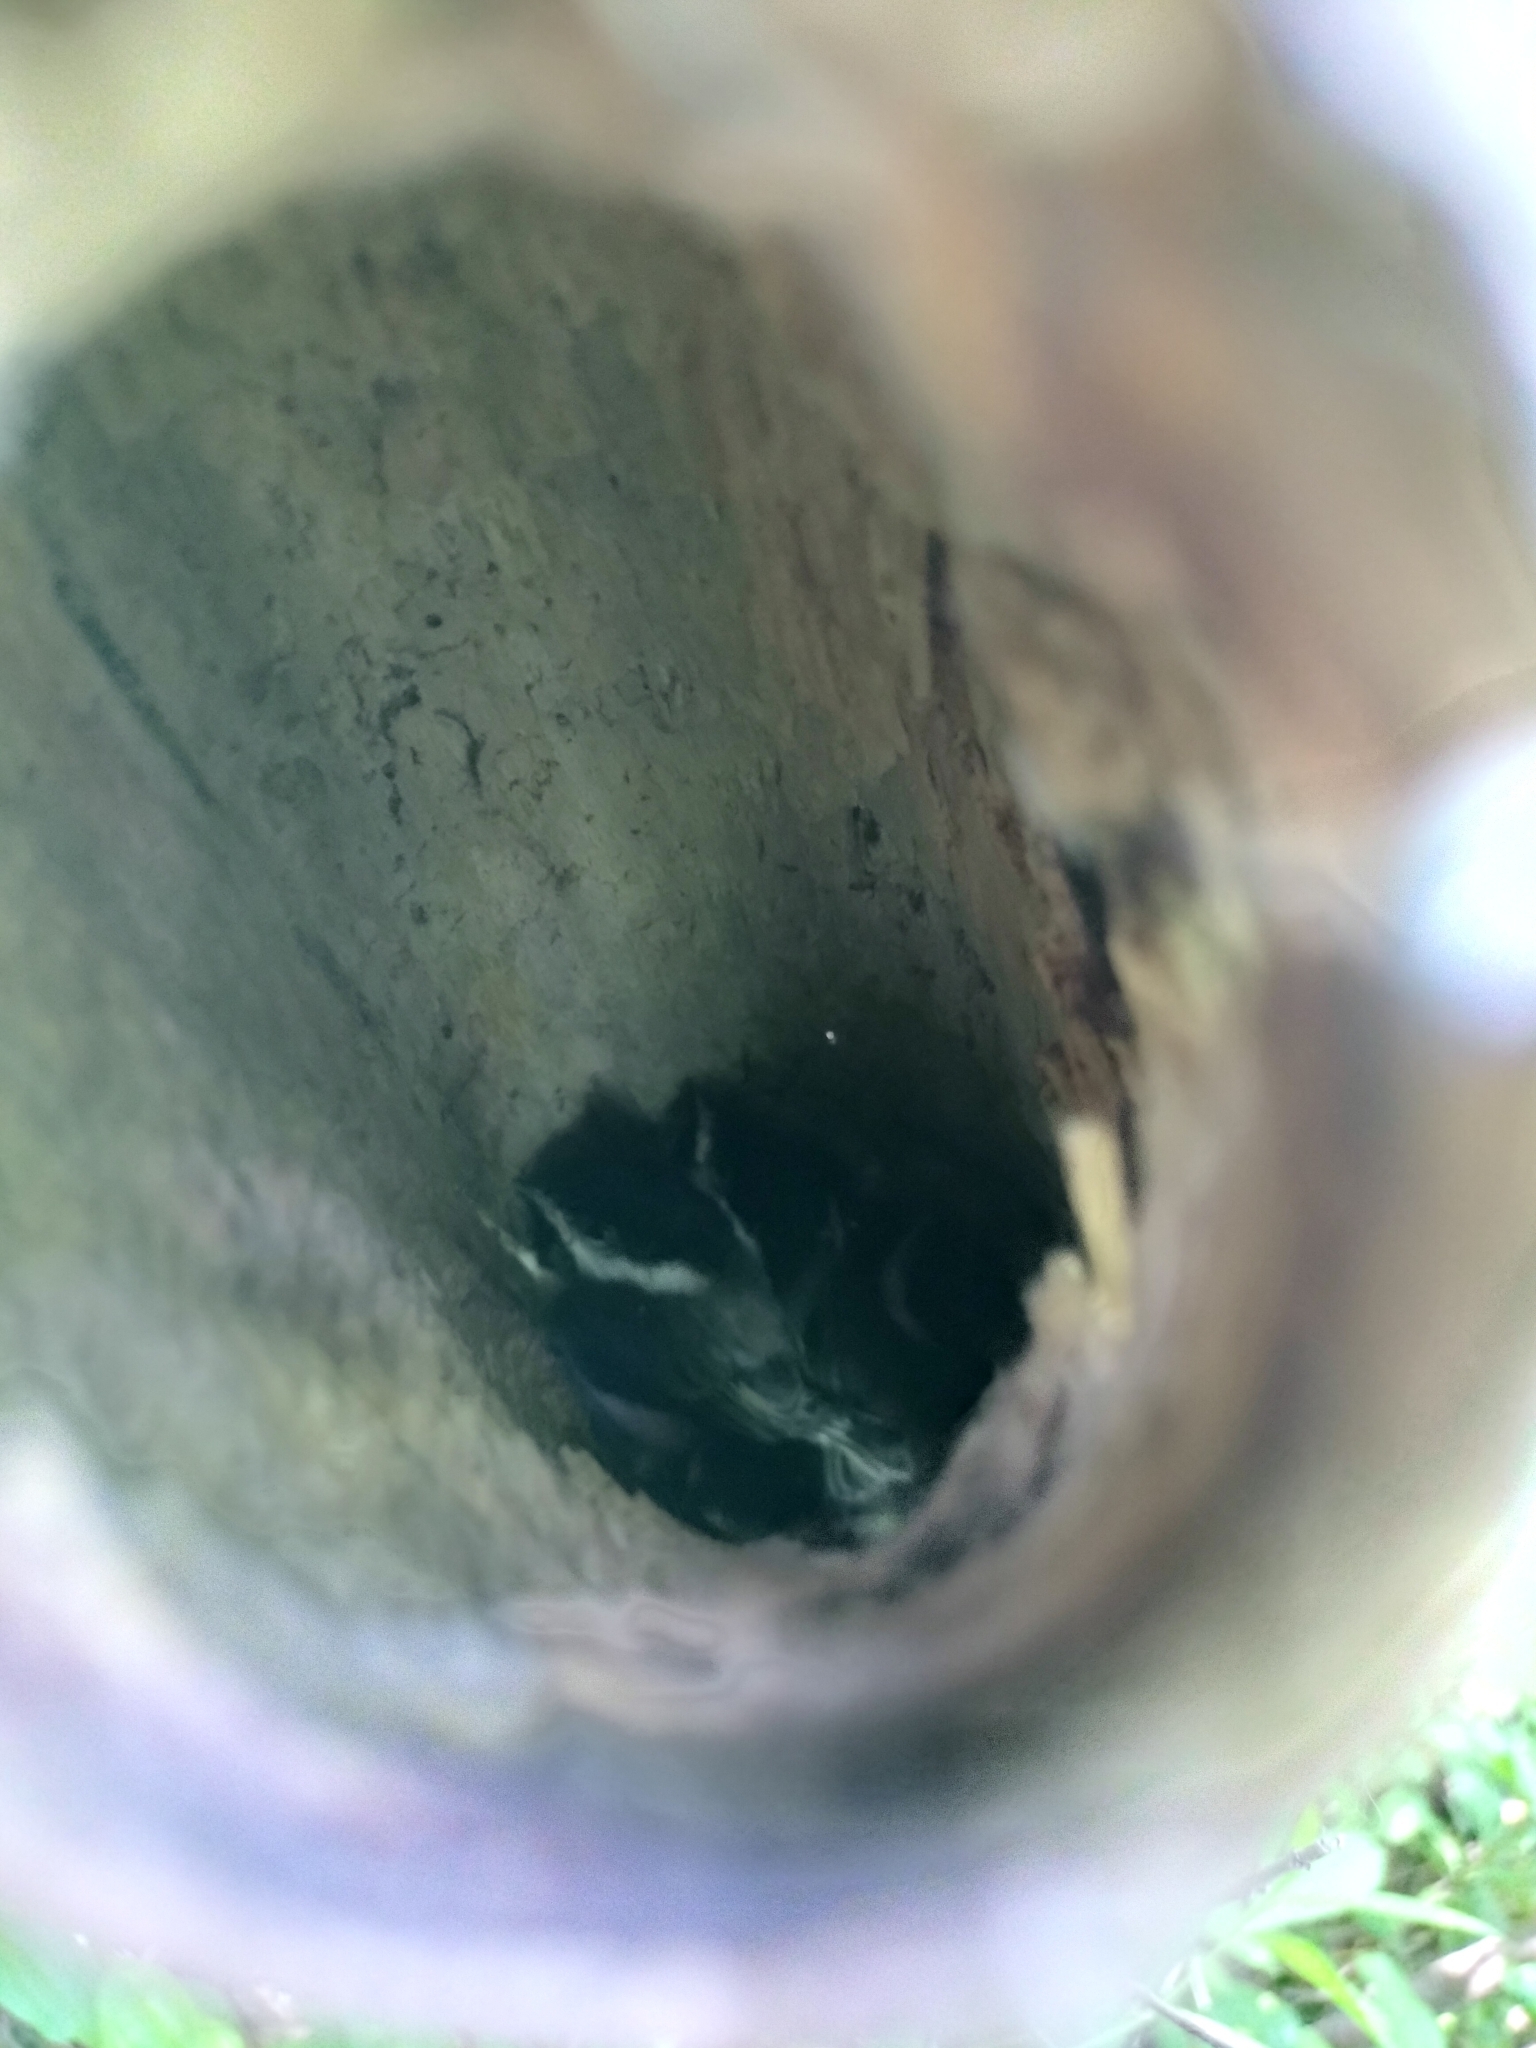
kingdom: Animalia
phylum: Chordata
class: Aves
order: Passeriformes
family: Paridae
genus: Poecile
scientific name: Poecile atricapillus
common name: Black-capped chickadee
